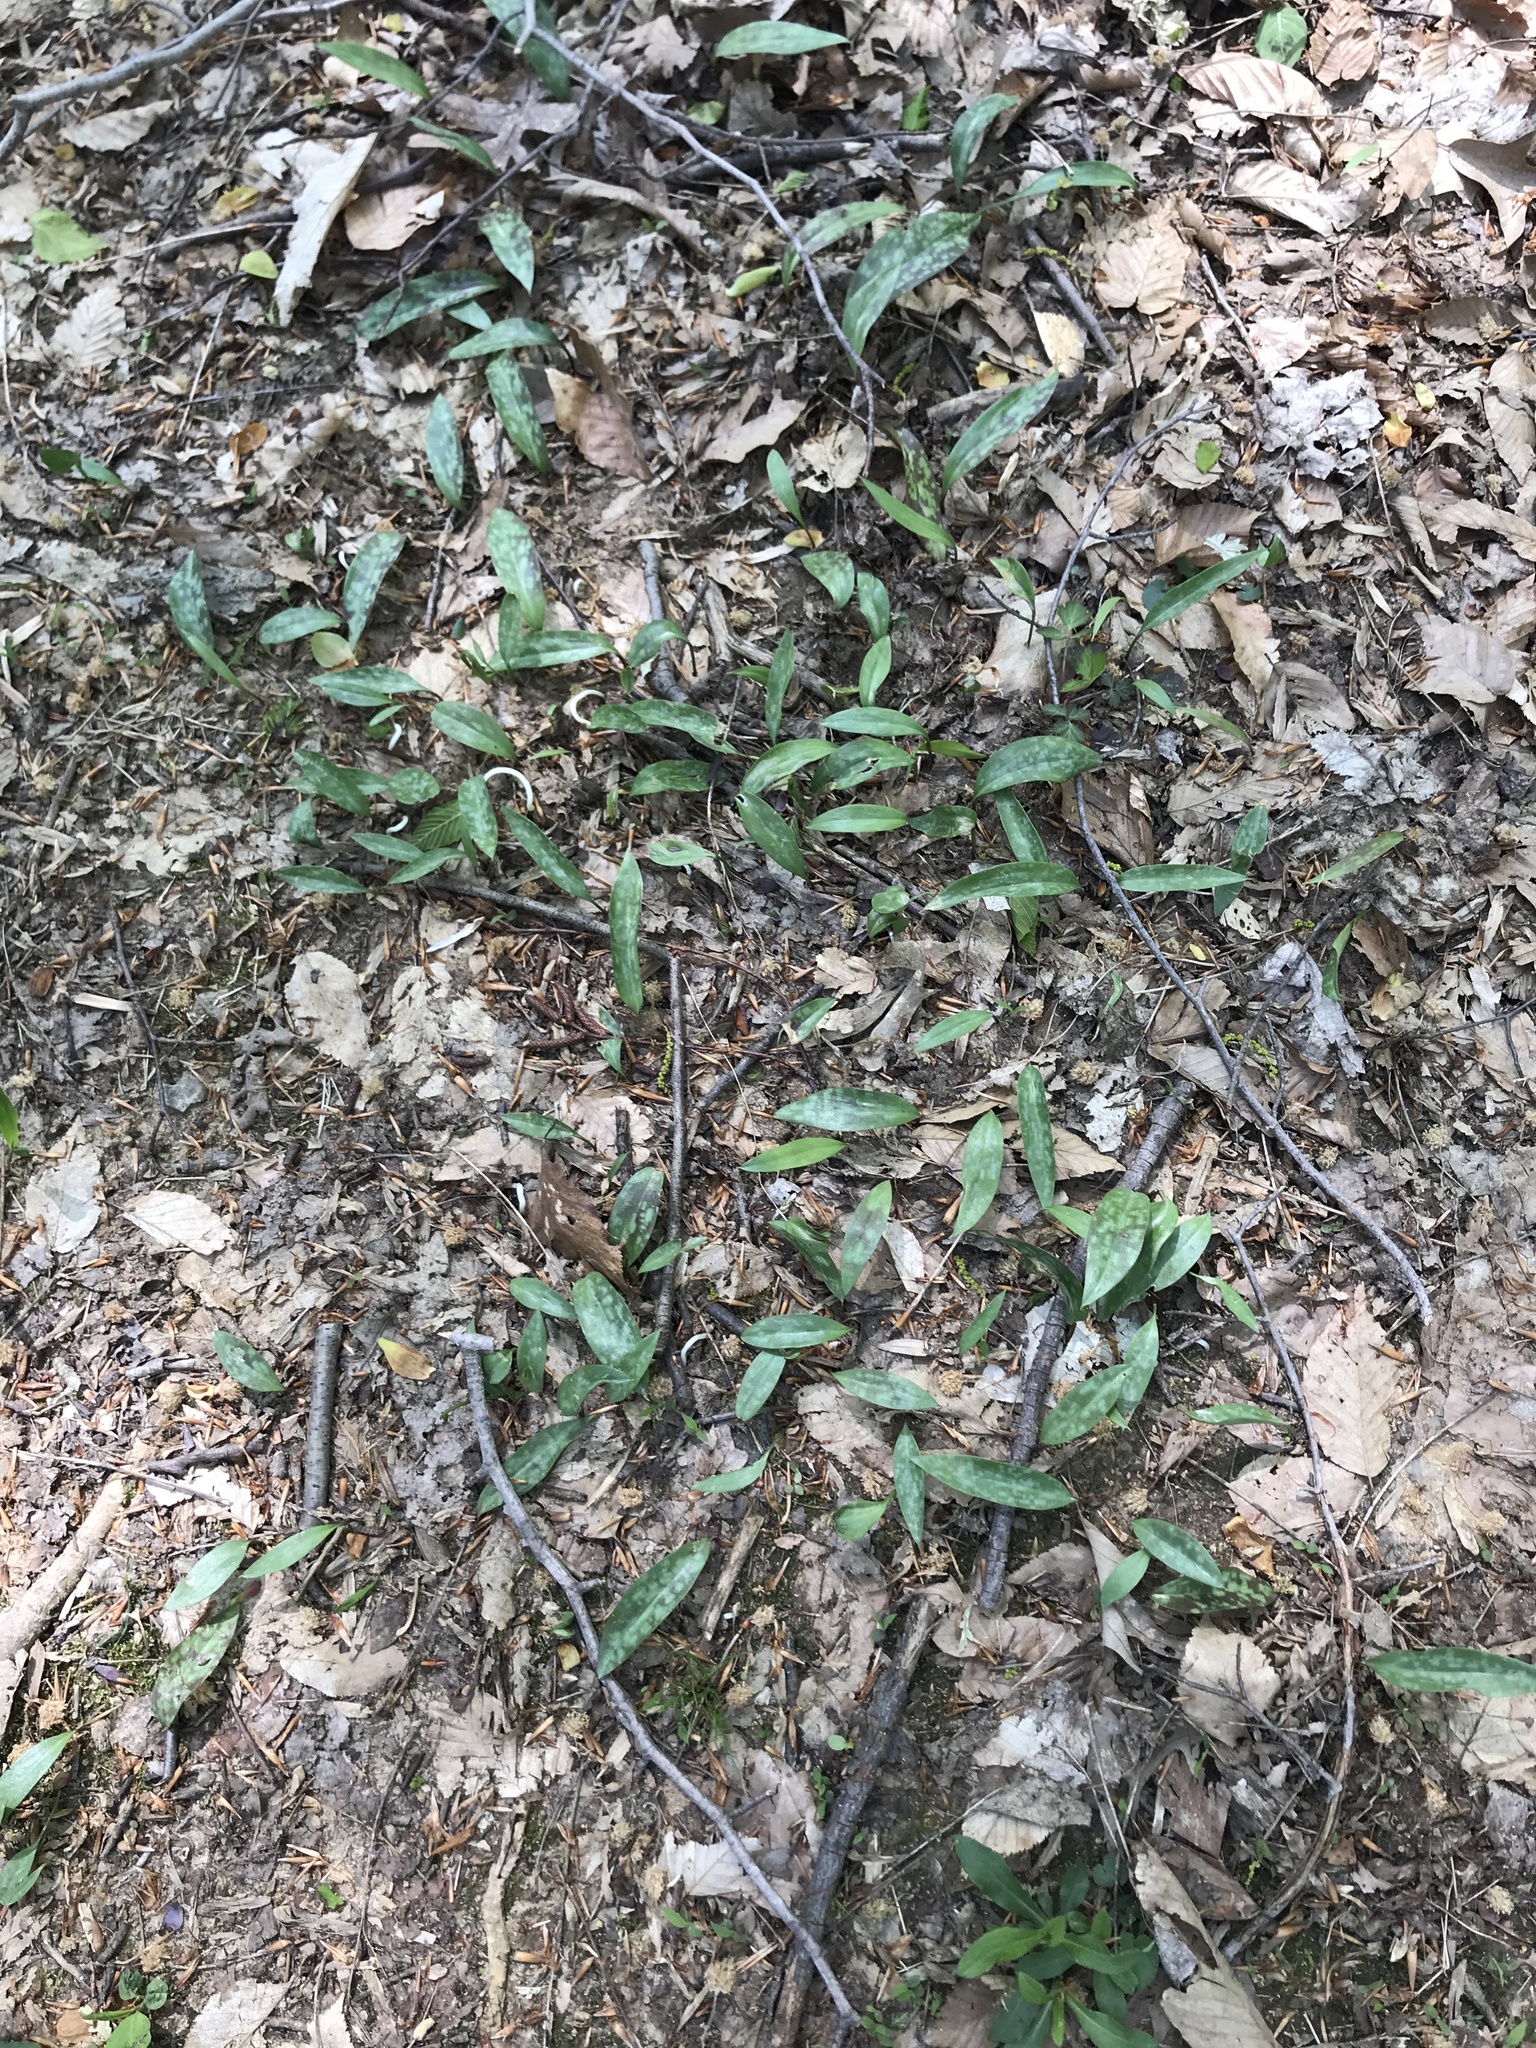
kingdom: Plantae
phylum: Tracheophyta
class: Liliopsida
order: Liliales
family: Liliaceae
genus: Erythronium
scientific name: Erythronium americanum
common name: Yellow adder's-tongue
